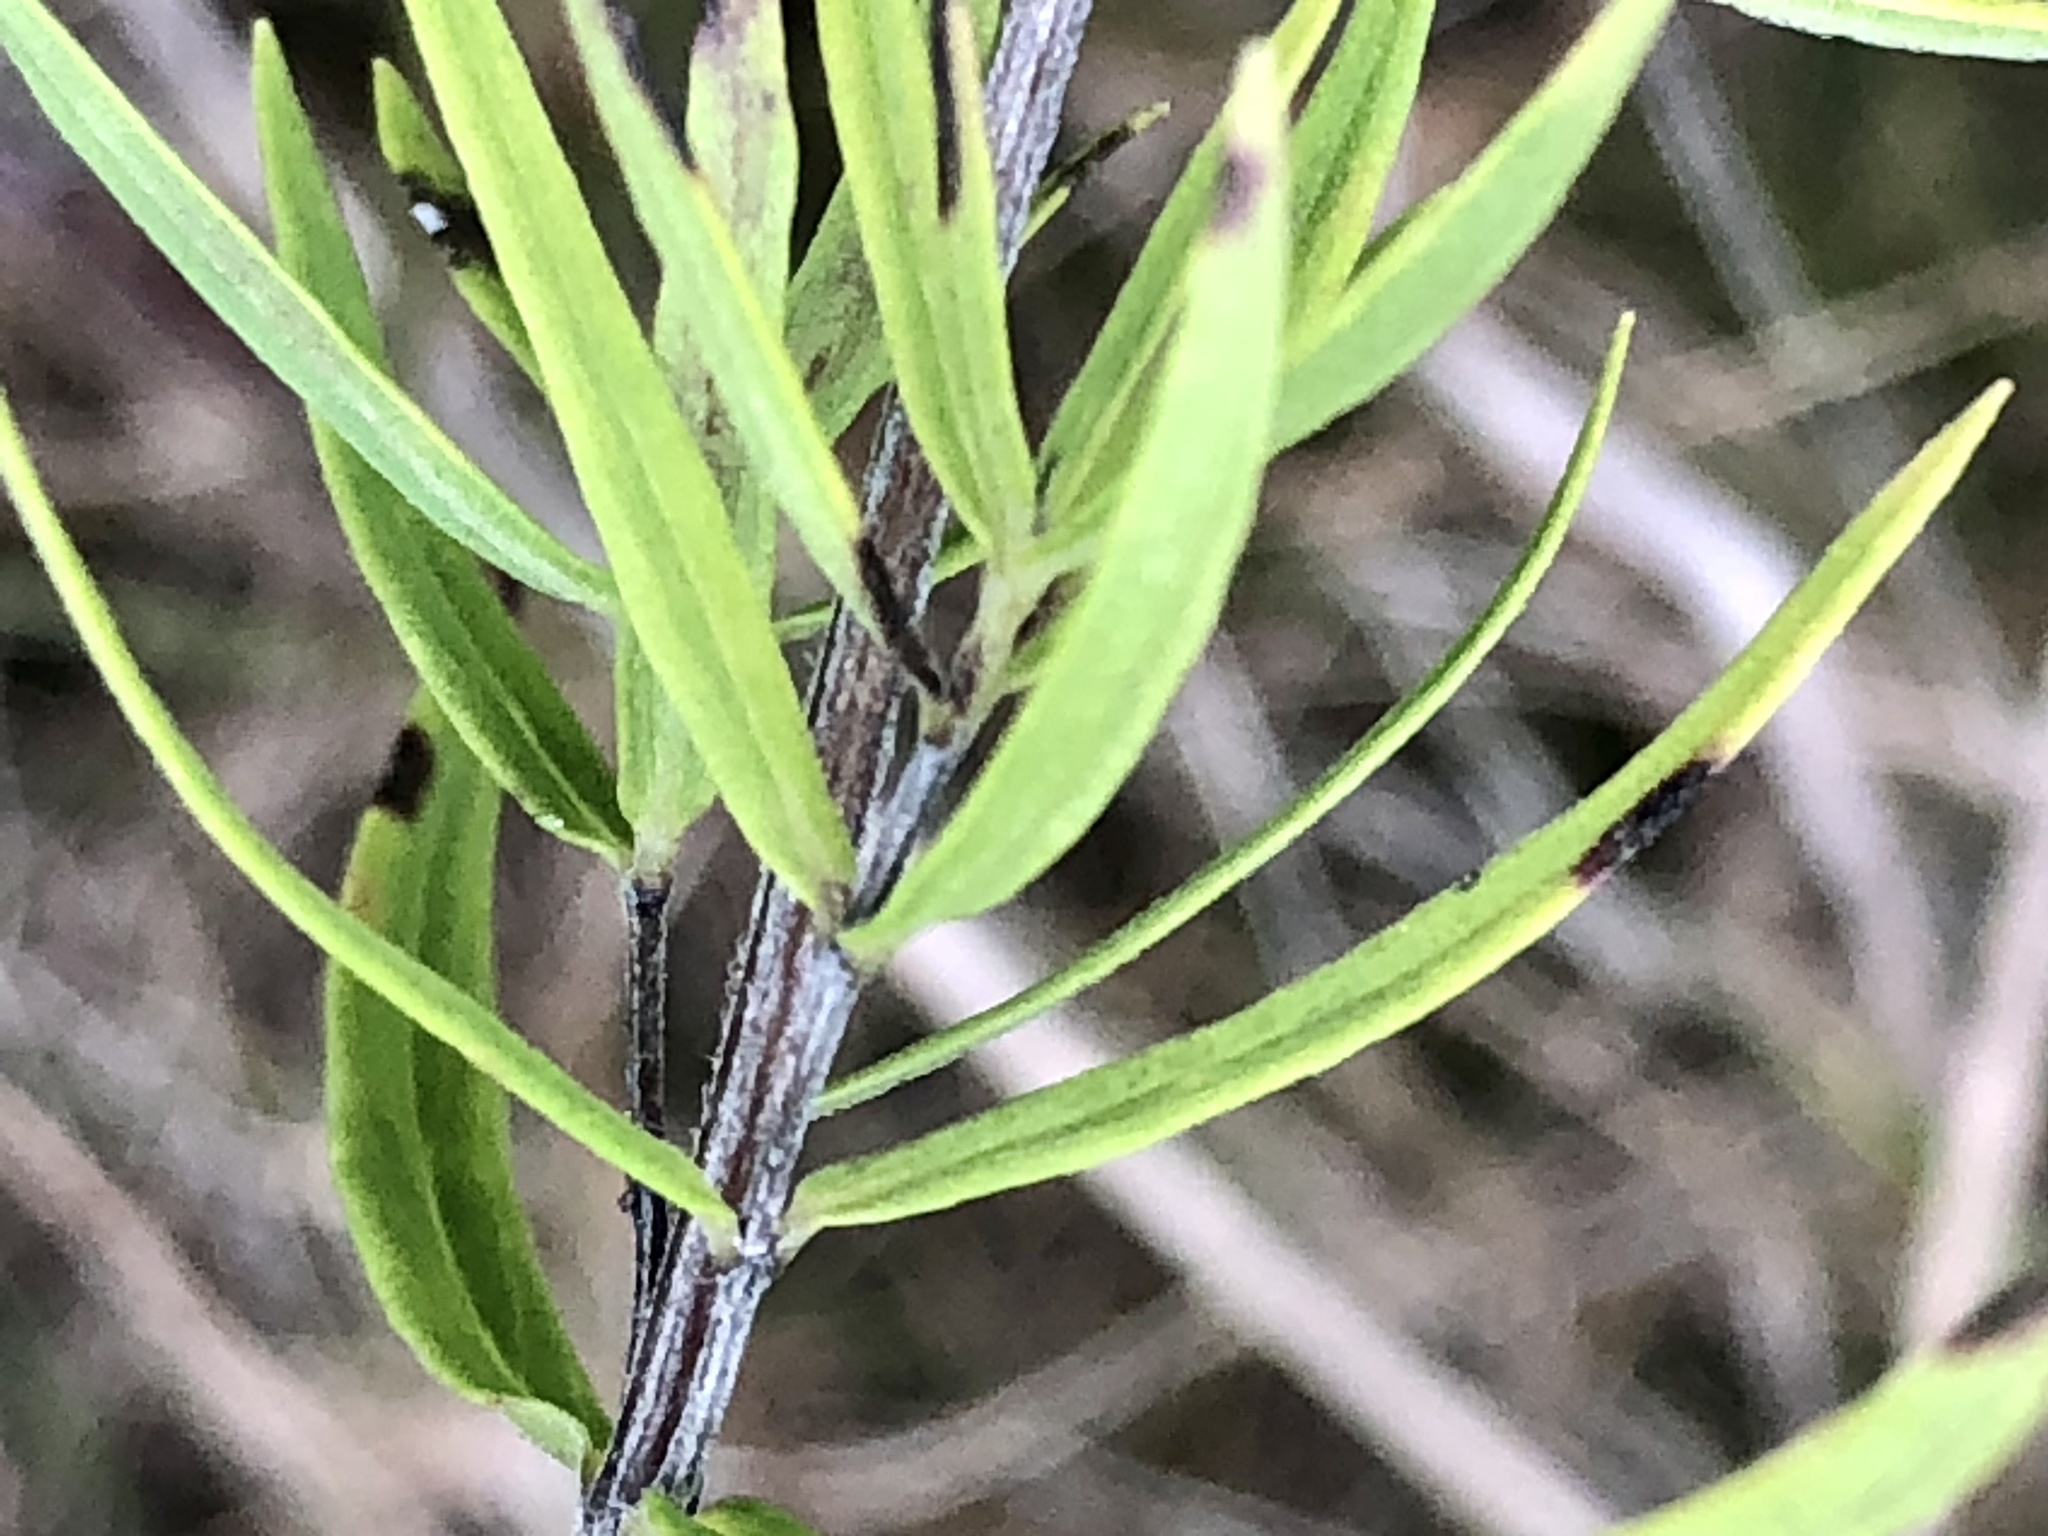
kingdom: Plantae
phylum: Tracheophyta
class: Magnoliopsida
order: Lamiales
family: Lamiaceae
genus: Pycnanthemum
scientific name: Pycnanthemum tenuifolium
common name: Narrow-leaf mountain-mint
